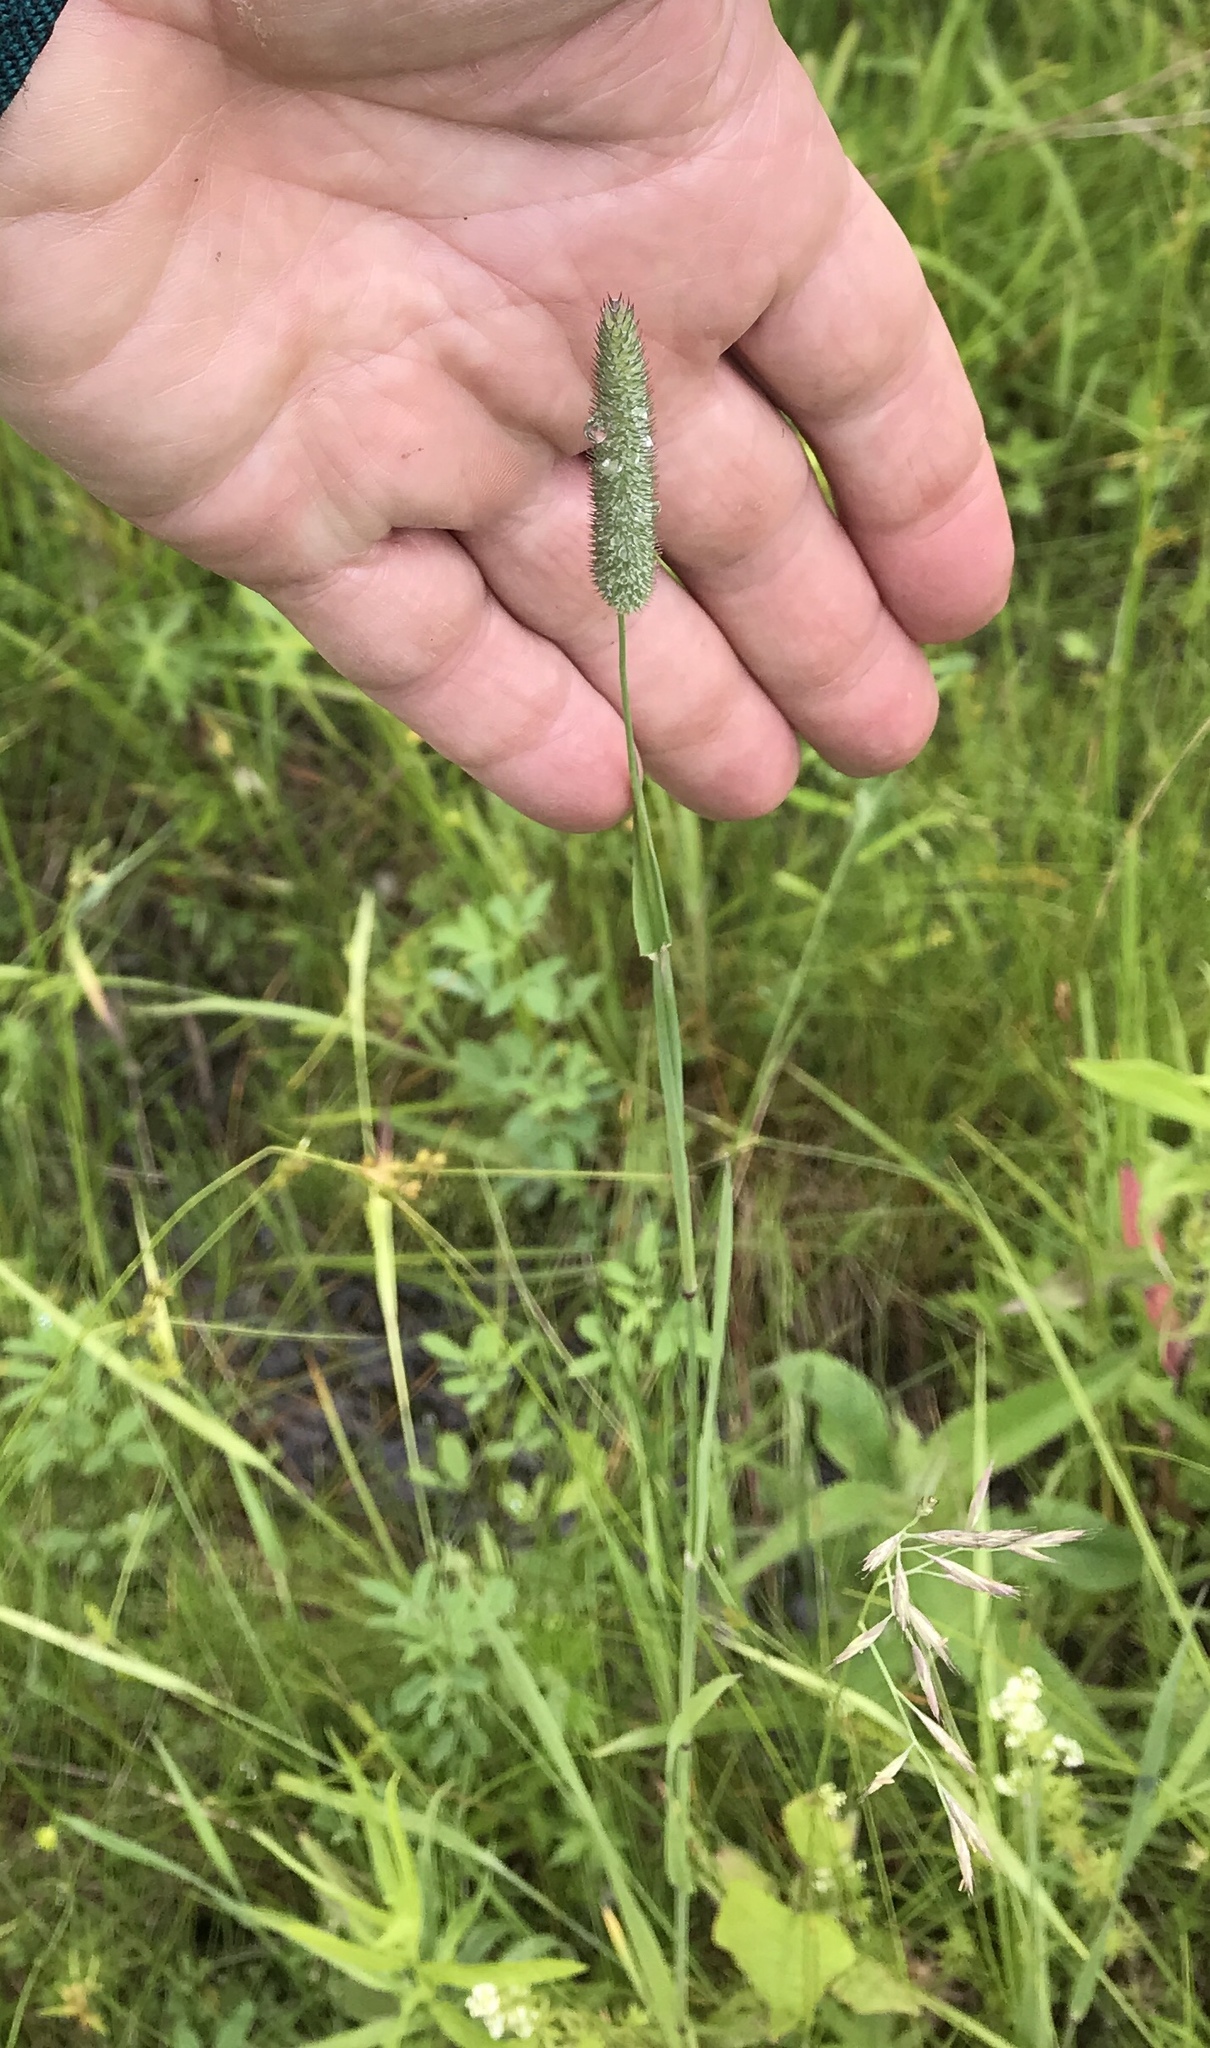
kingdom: Plantae
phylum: Tracheophyta
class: Liliopsida
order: Poales
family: Poaceae
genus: Phleum
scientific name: Phleum pratense
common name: Timothy grass
